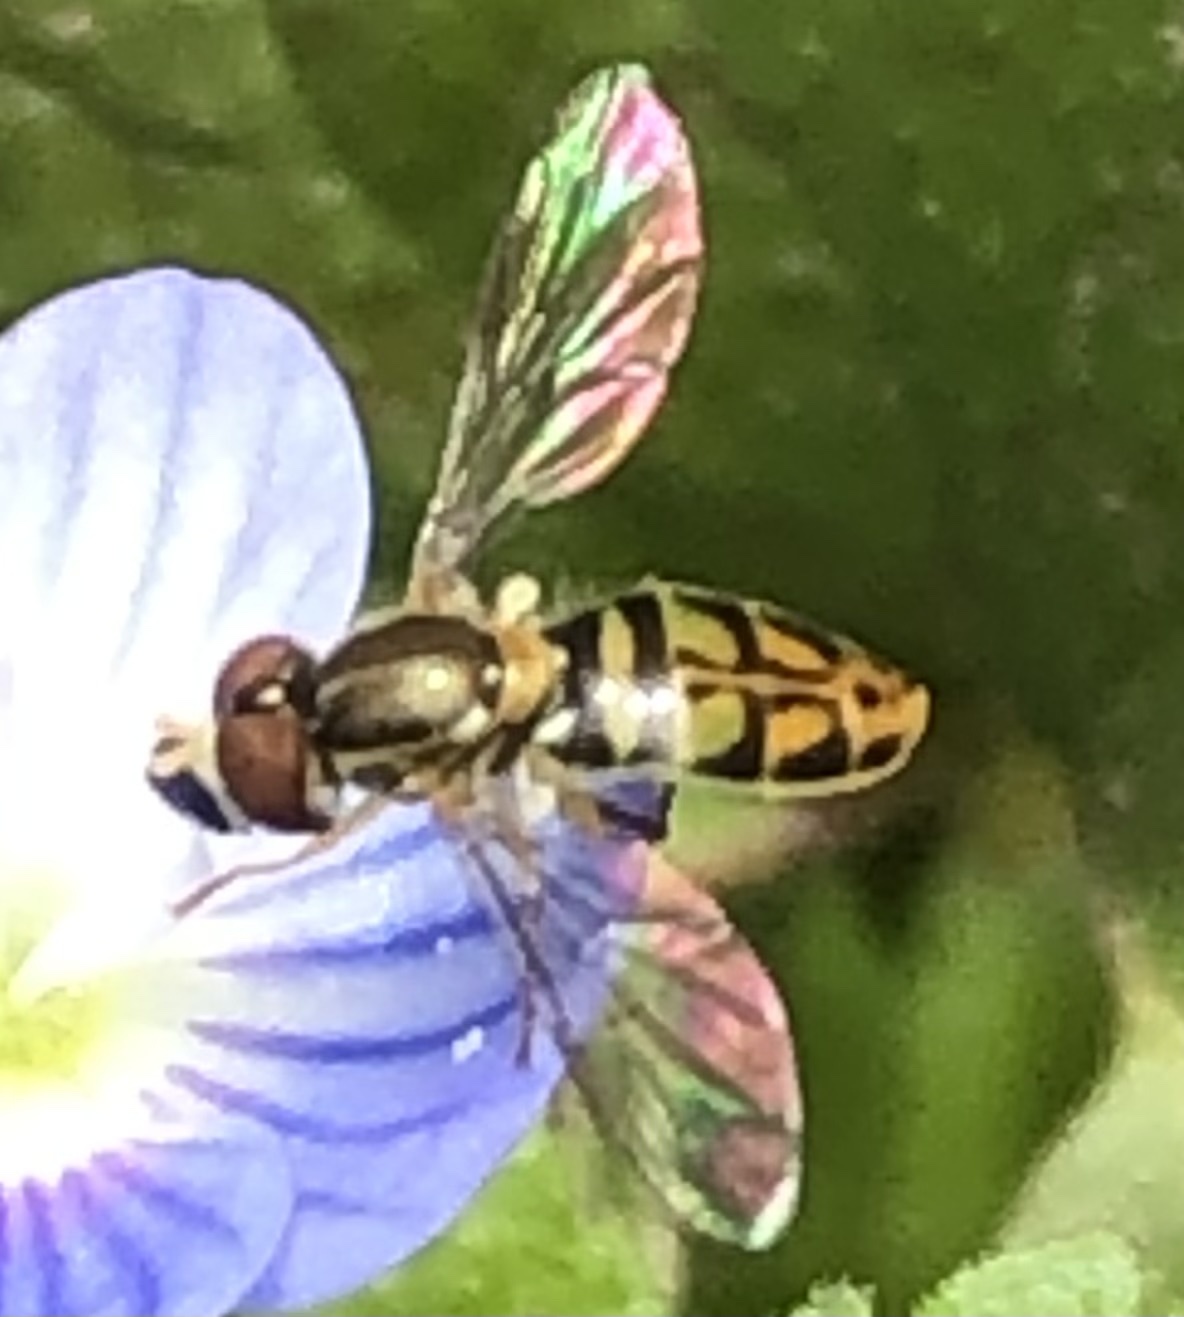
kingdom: Animalia
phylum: Arthropoda
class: Insecta
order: Diptera
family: Syrphidae
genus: Toxomerus
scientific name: Toxomerus marginatus
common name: Syrphid fly
